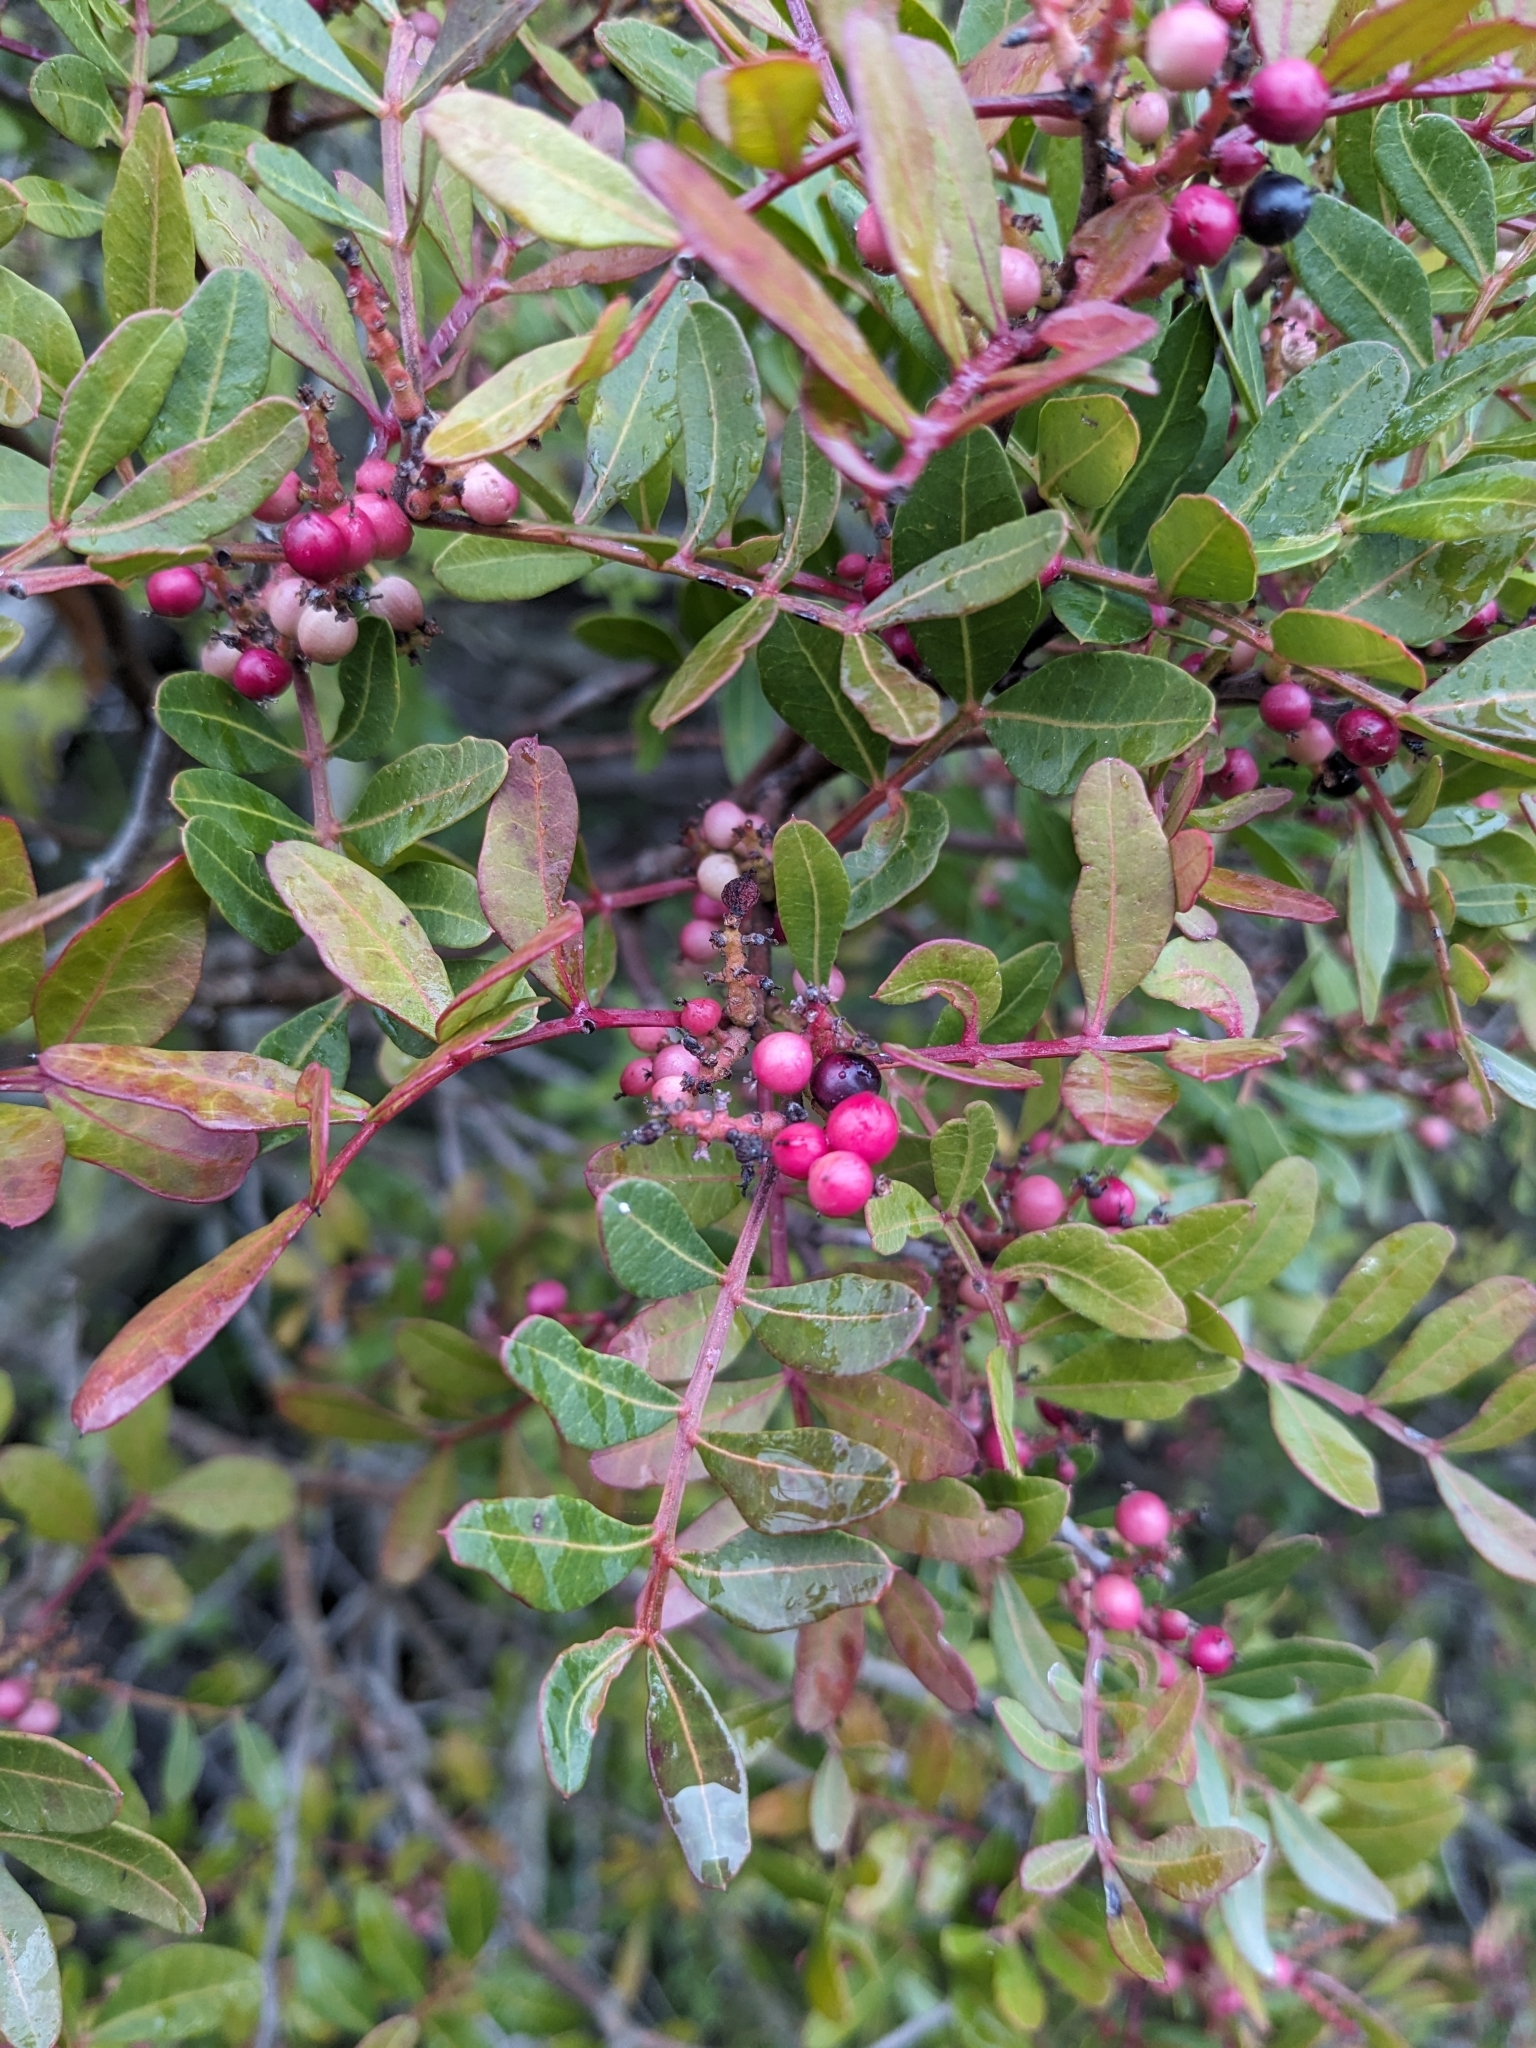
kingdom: Plantae
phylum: Tracheophyta
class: Magnoliopsida
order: Sapindales
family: Anacardiaceae
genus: Pistacia
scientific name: Pistacia lentiscus
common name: Lentisk
